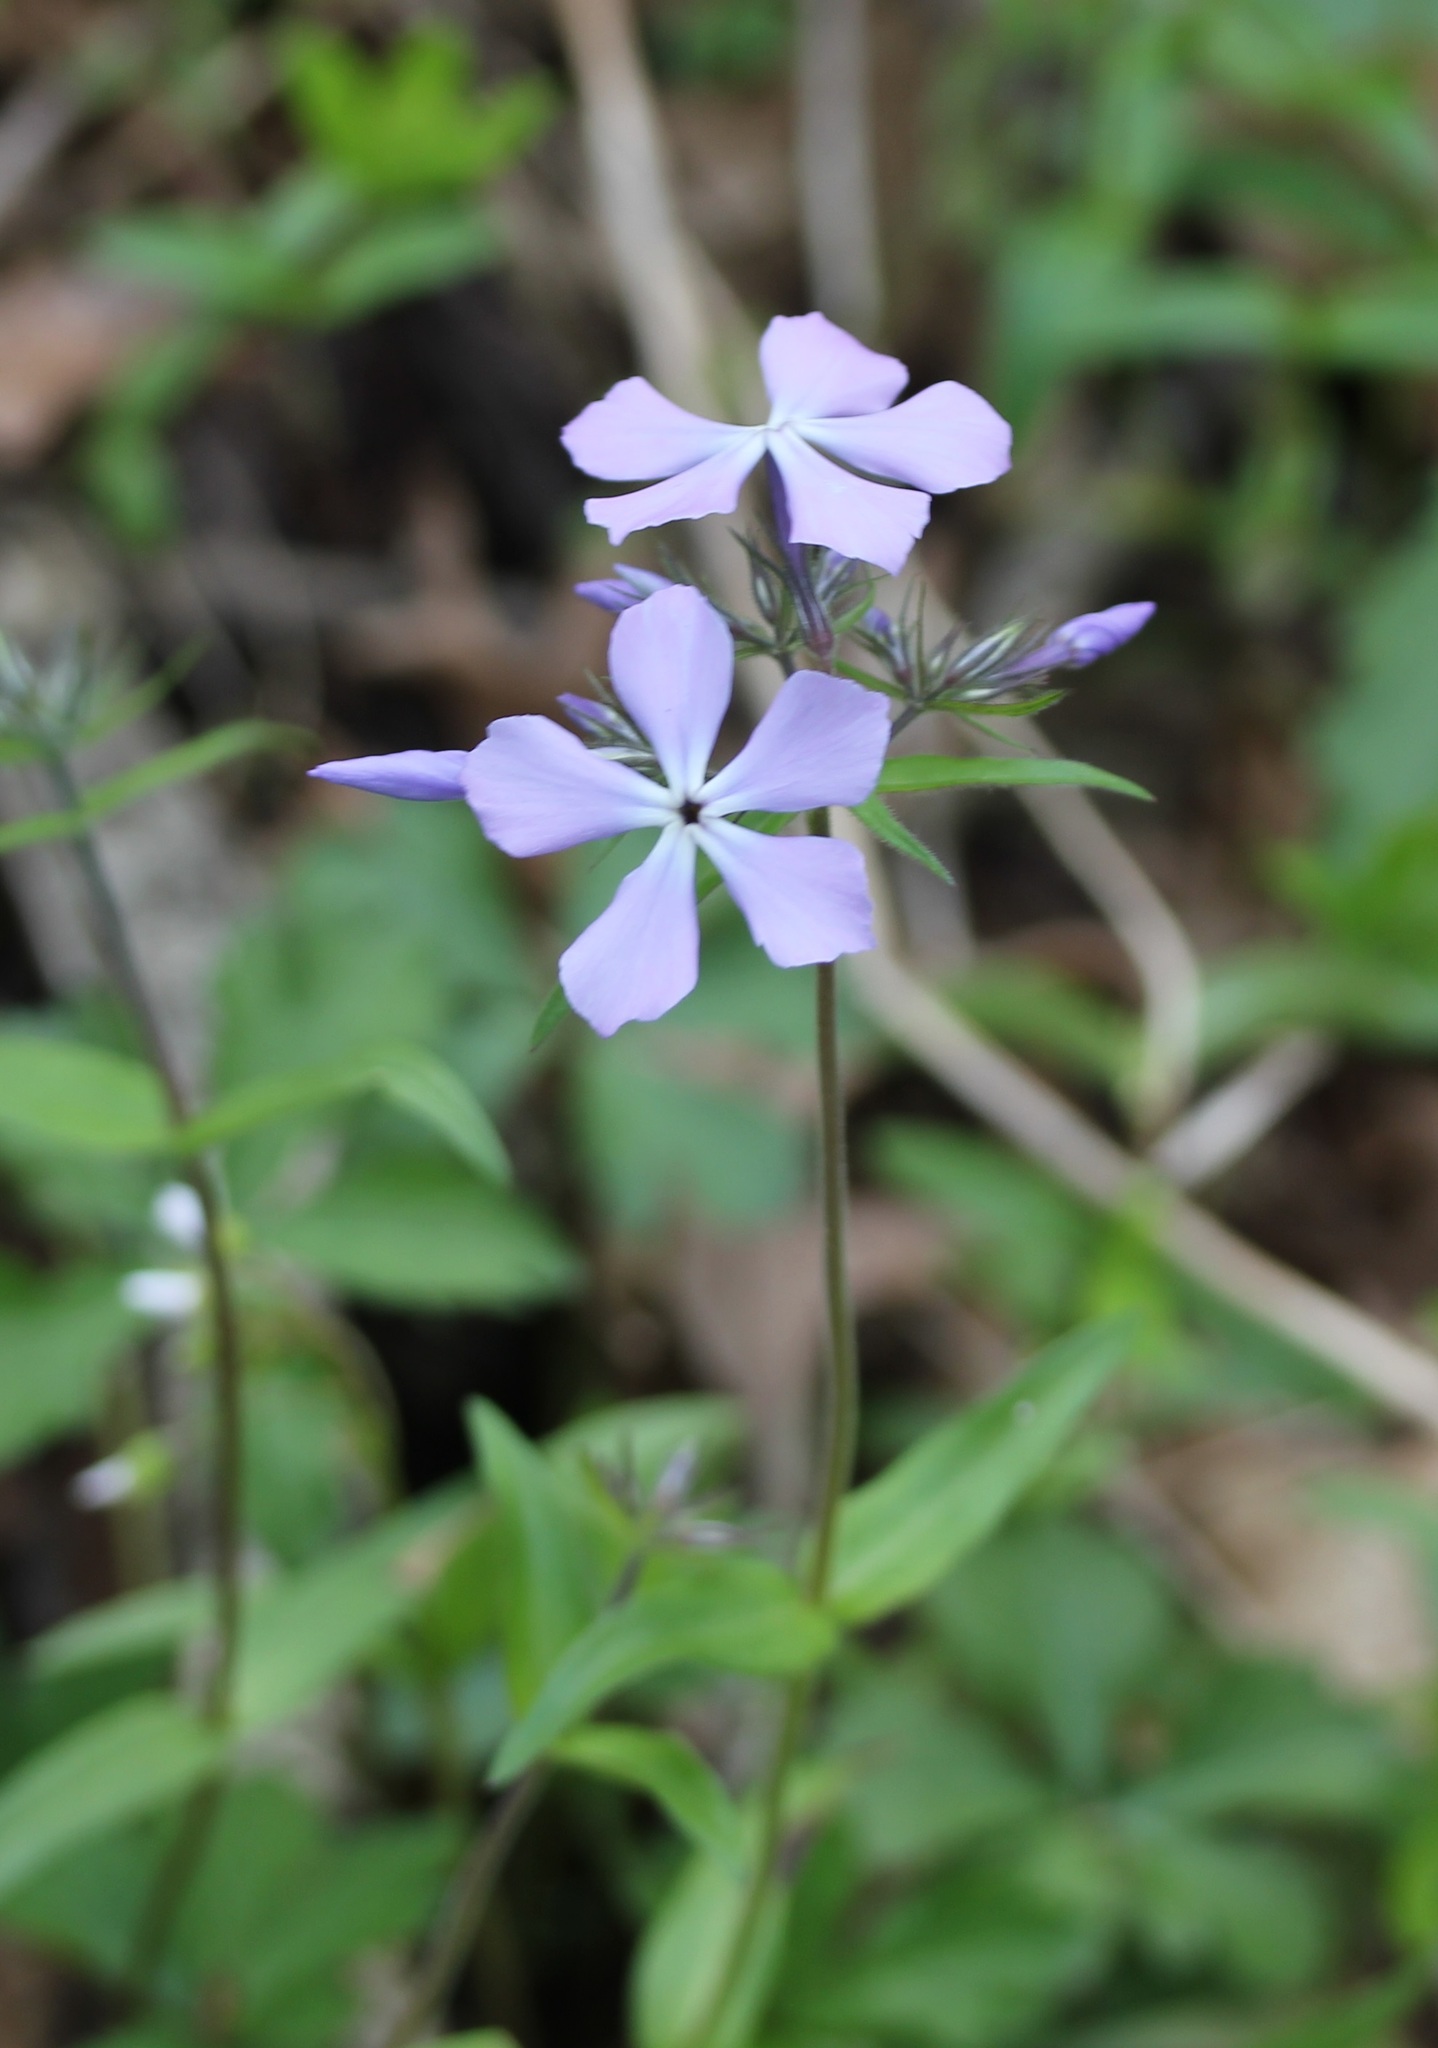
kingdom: Plantae
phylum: Tracheophyta
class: Magnoliopsida
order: Ericales
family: Polemoniaceae
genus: Phlox
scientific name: Phlox divaricata
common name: Blue phlox
